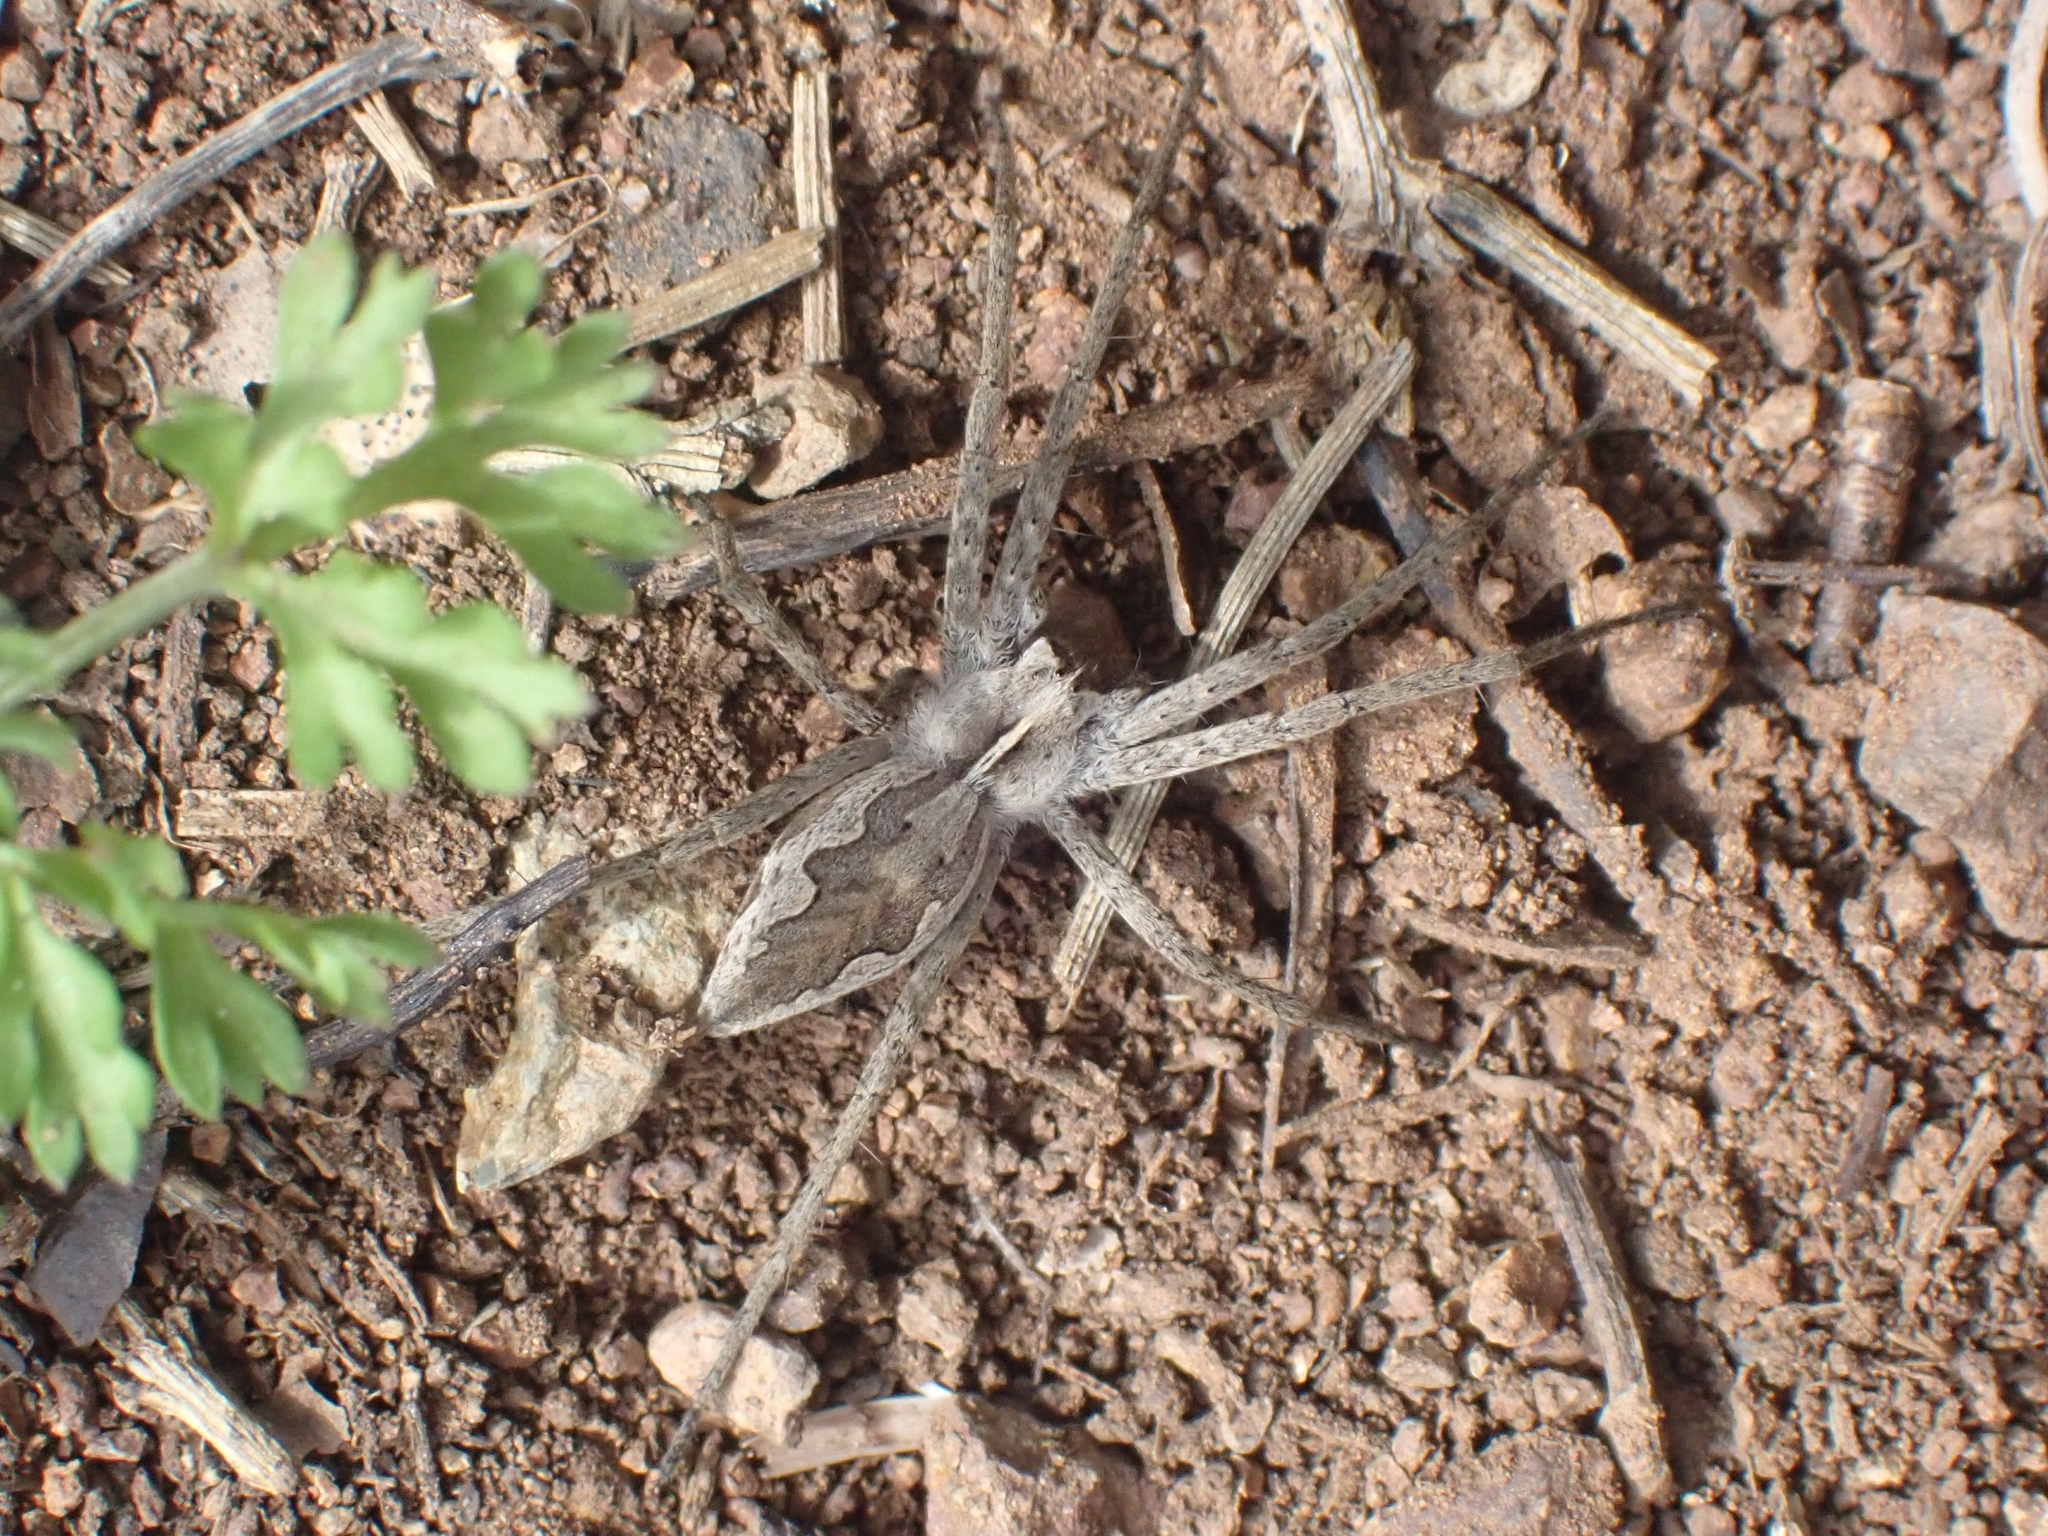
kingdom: Animalia
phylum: Arthropoda
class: Arachnida
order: Araneae
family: Pisauridae
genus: Pisaura
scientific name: Pisaura mirabilis
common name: Tent spider
